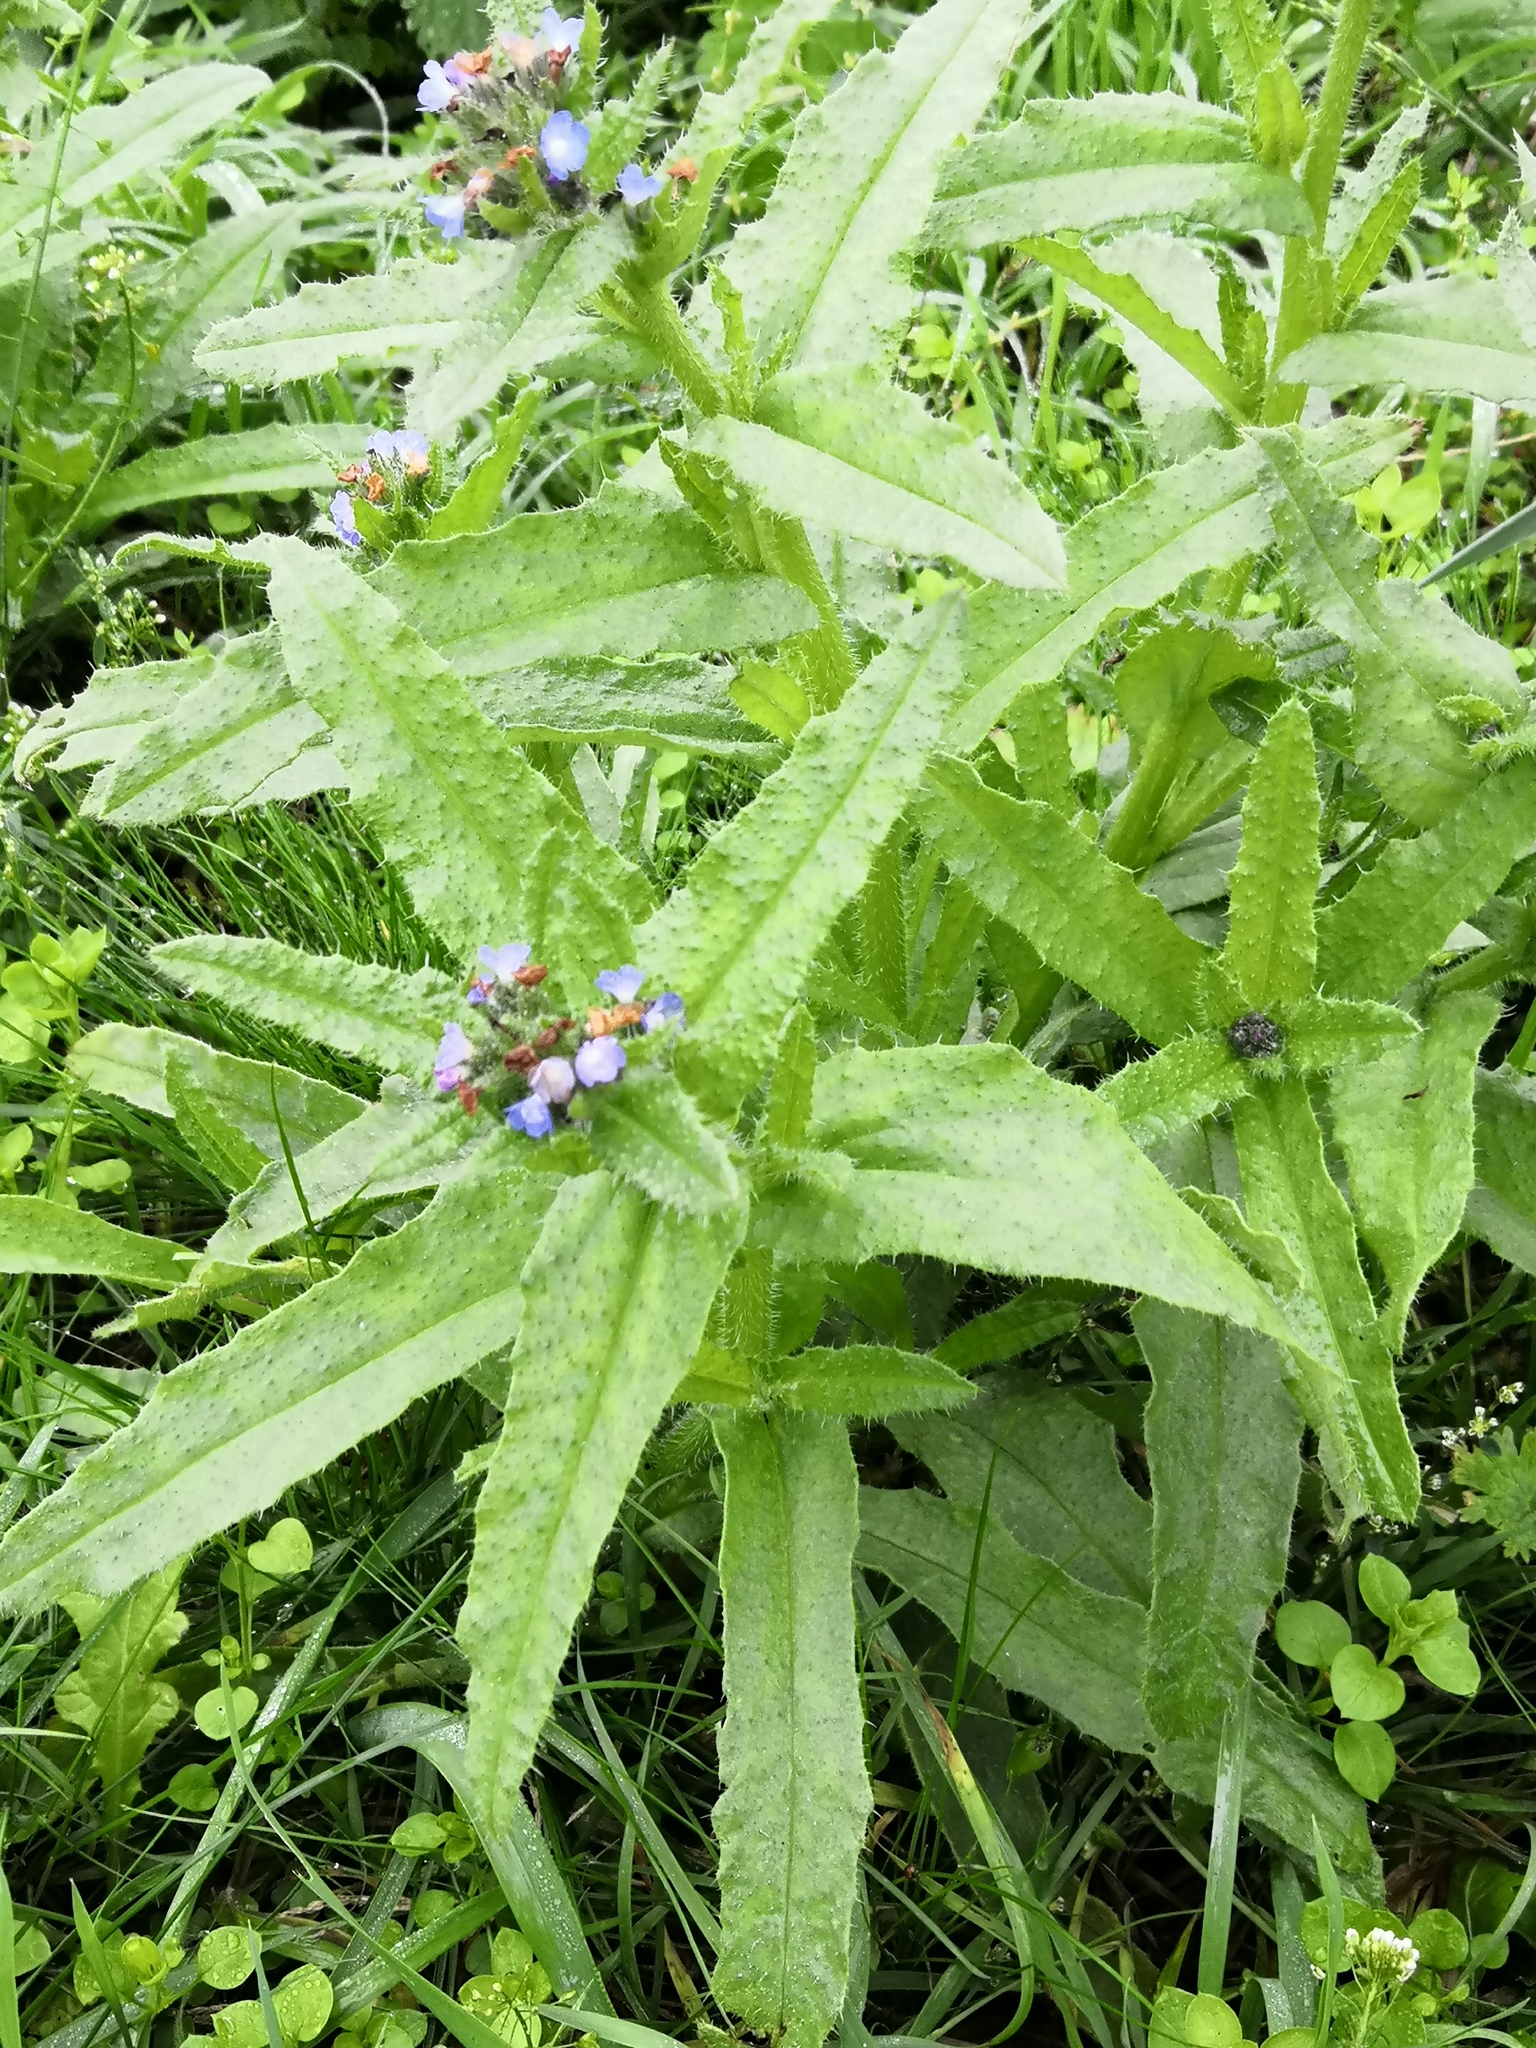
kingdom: Plantae
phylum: Tracheophyta
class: Magnoliopsida
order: Boraginales
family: Boraginaceae
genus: Lycopsis
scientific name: Lycopsis arvensis
